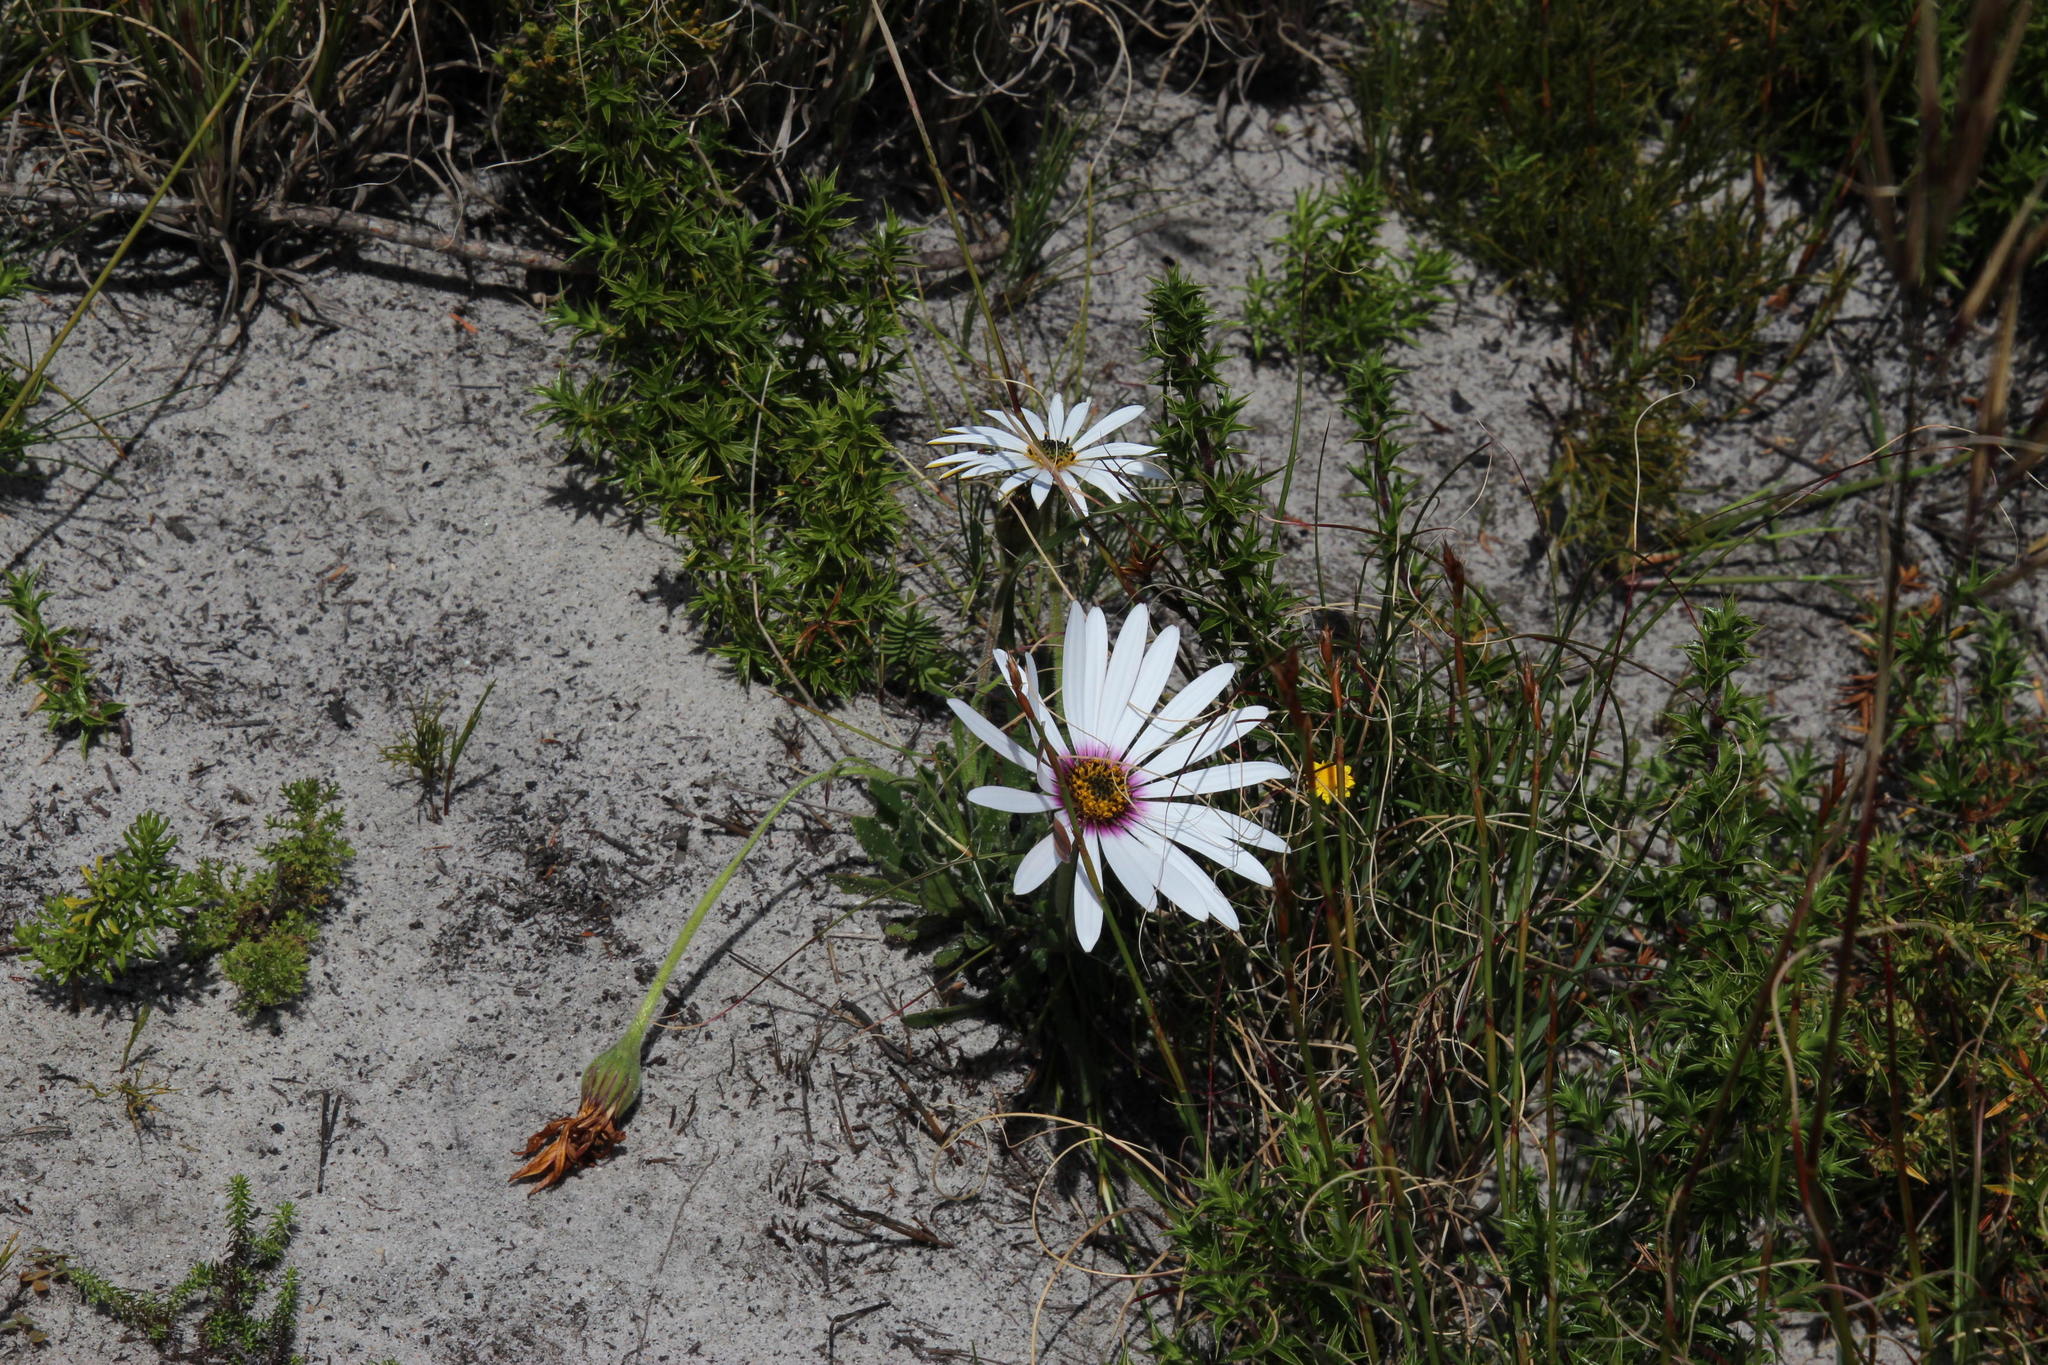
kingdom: Plantae
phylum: Tracheophyta
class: Magnoliopsida
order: Asterales
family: Asteraceae
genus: Dimorphotheca
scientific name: Dimorphotheca nudicaulis
